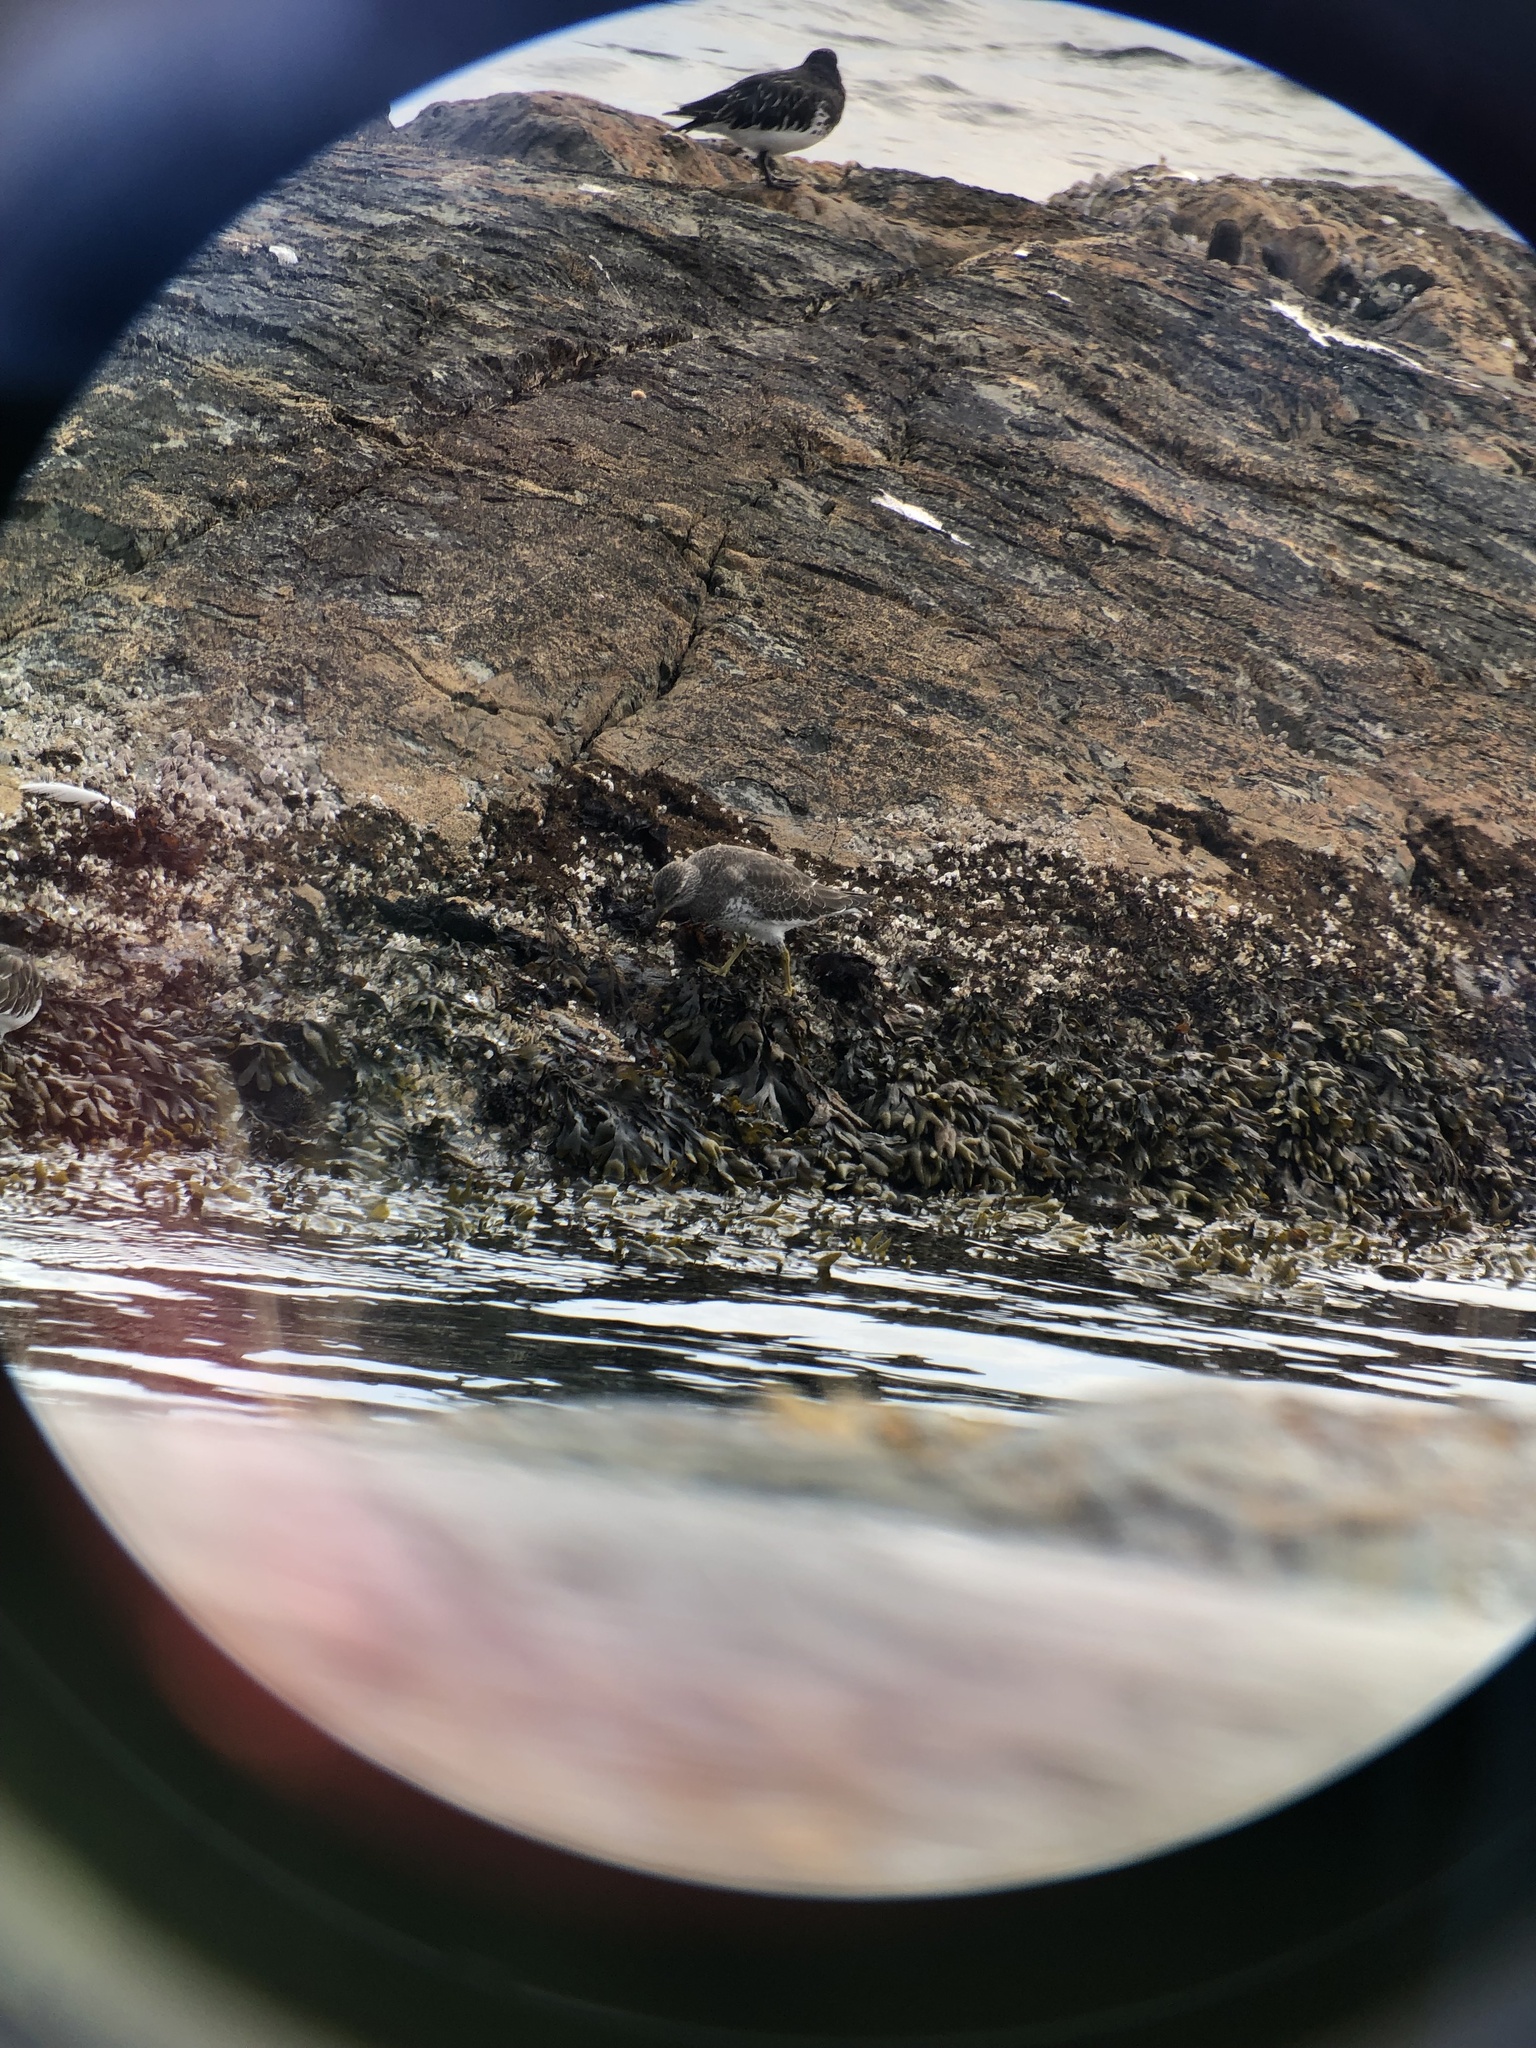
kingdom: Animalia
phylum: Chordata
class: Aves
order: Charadriiformes
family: Scolopacidae
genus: Arenaria
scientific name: Arenaria melanocephala
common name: Black turnstone
